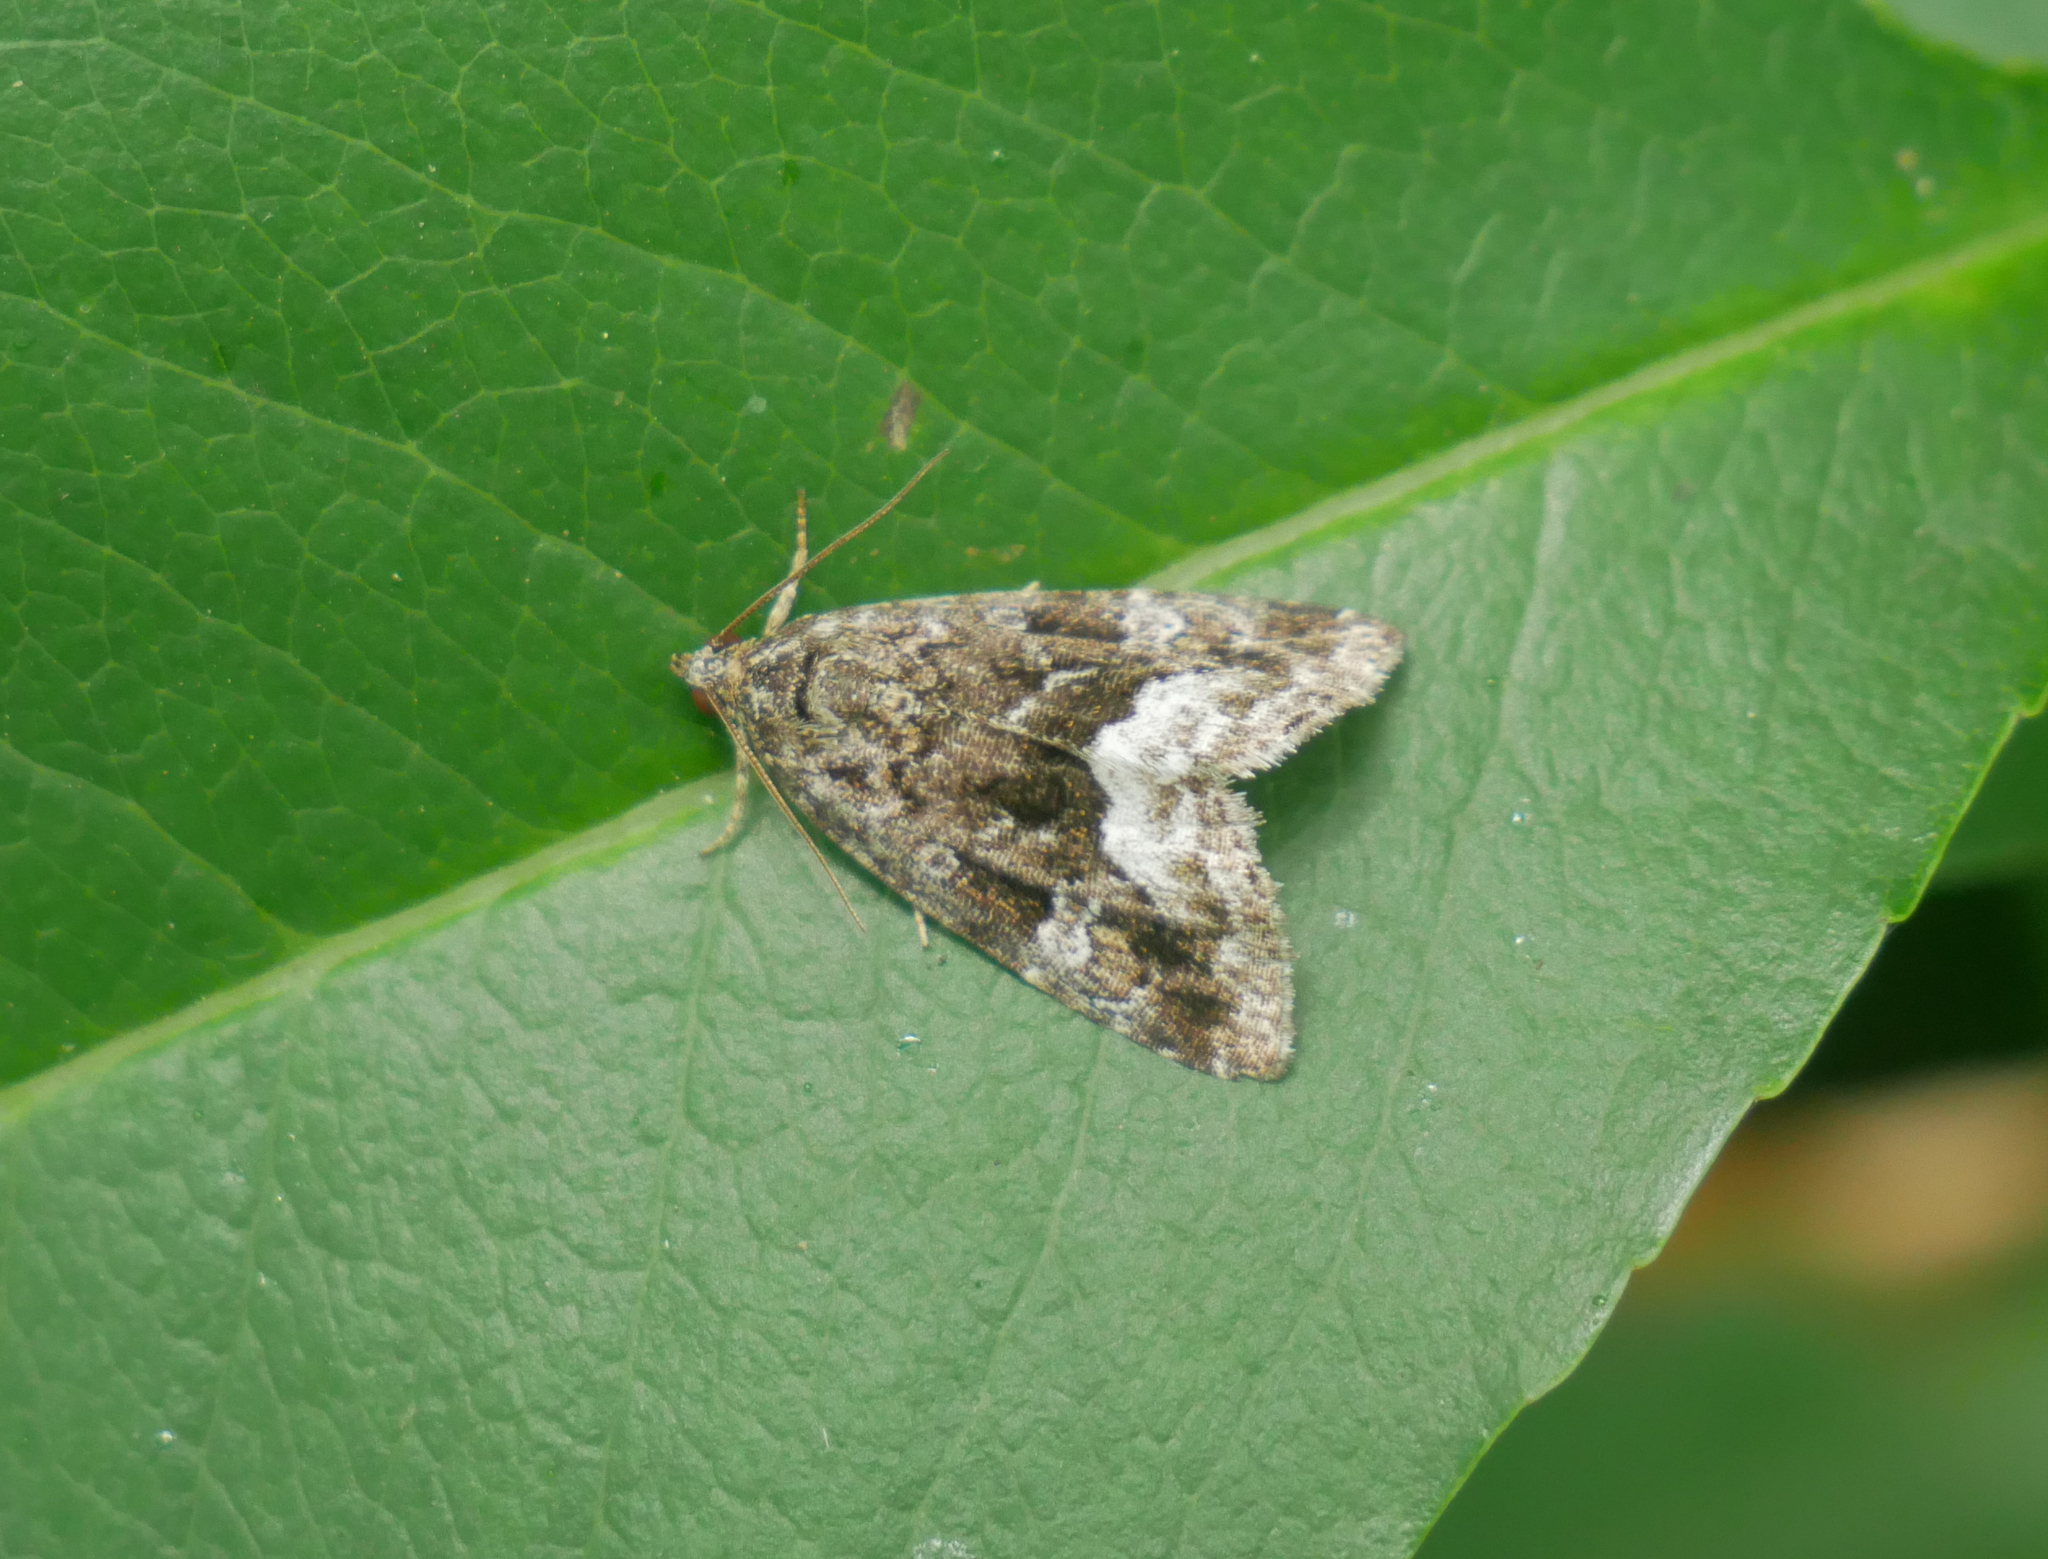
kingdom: Animalia
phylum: Arthropoda
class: Insecta
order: Lepidoptera
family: Noctuidae
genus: Deltote
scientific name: Deltote pygarga
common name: Marbled white spot
